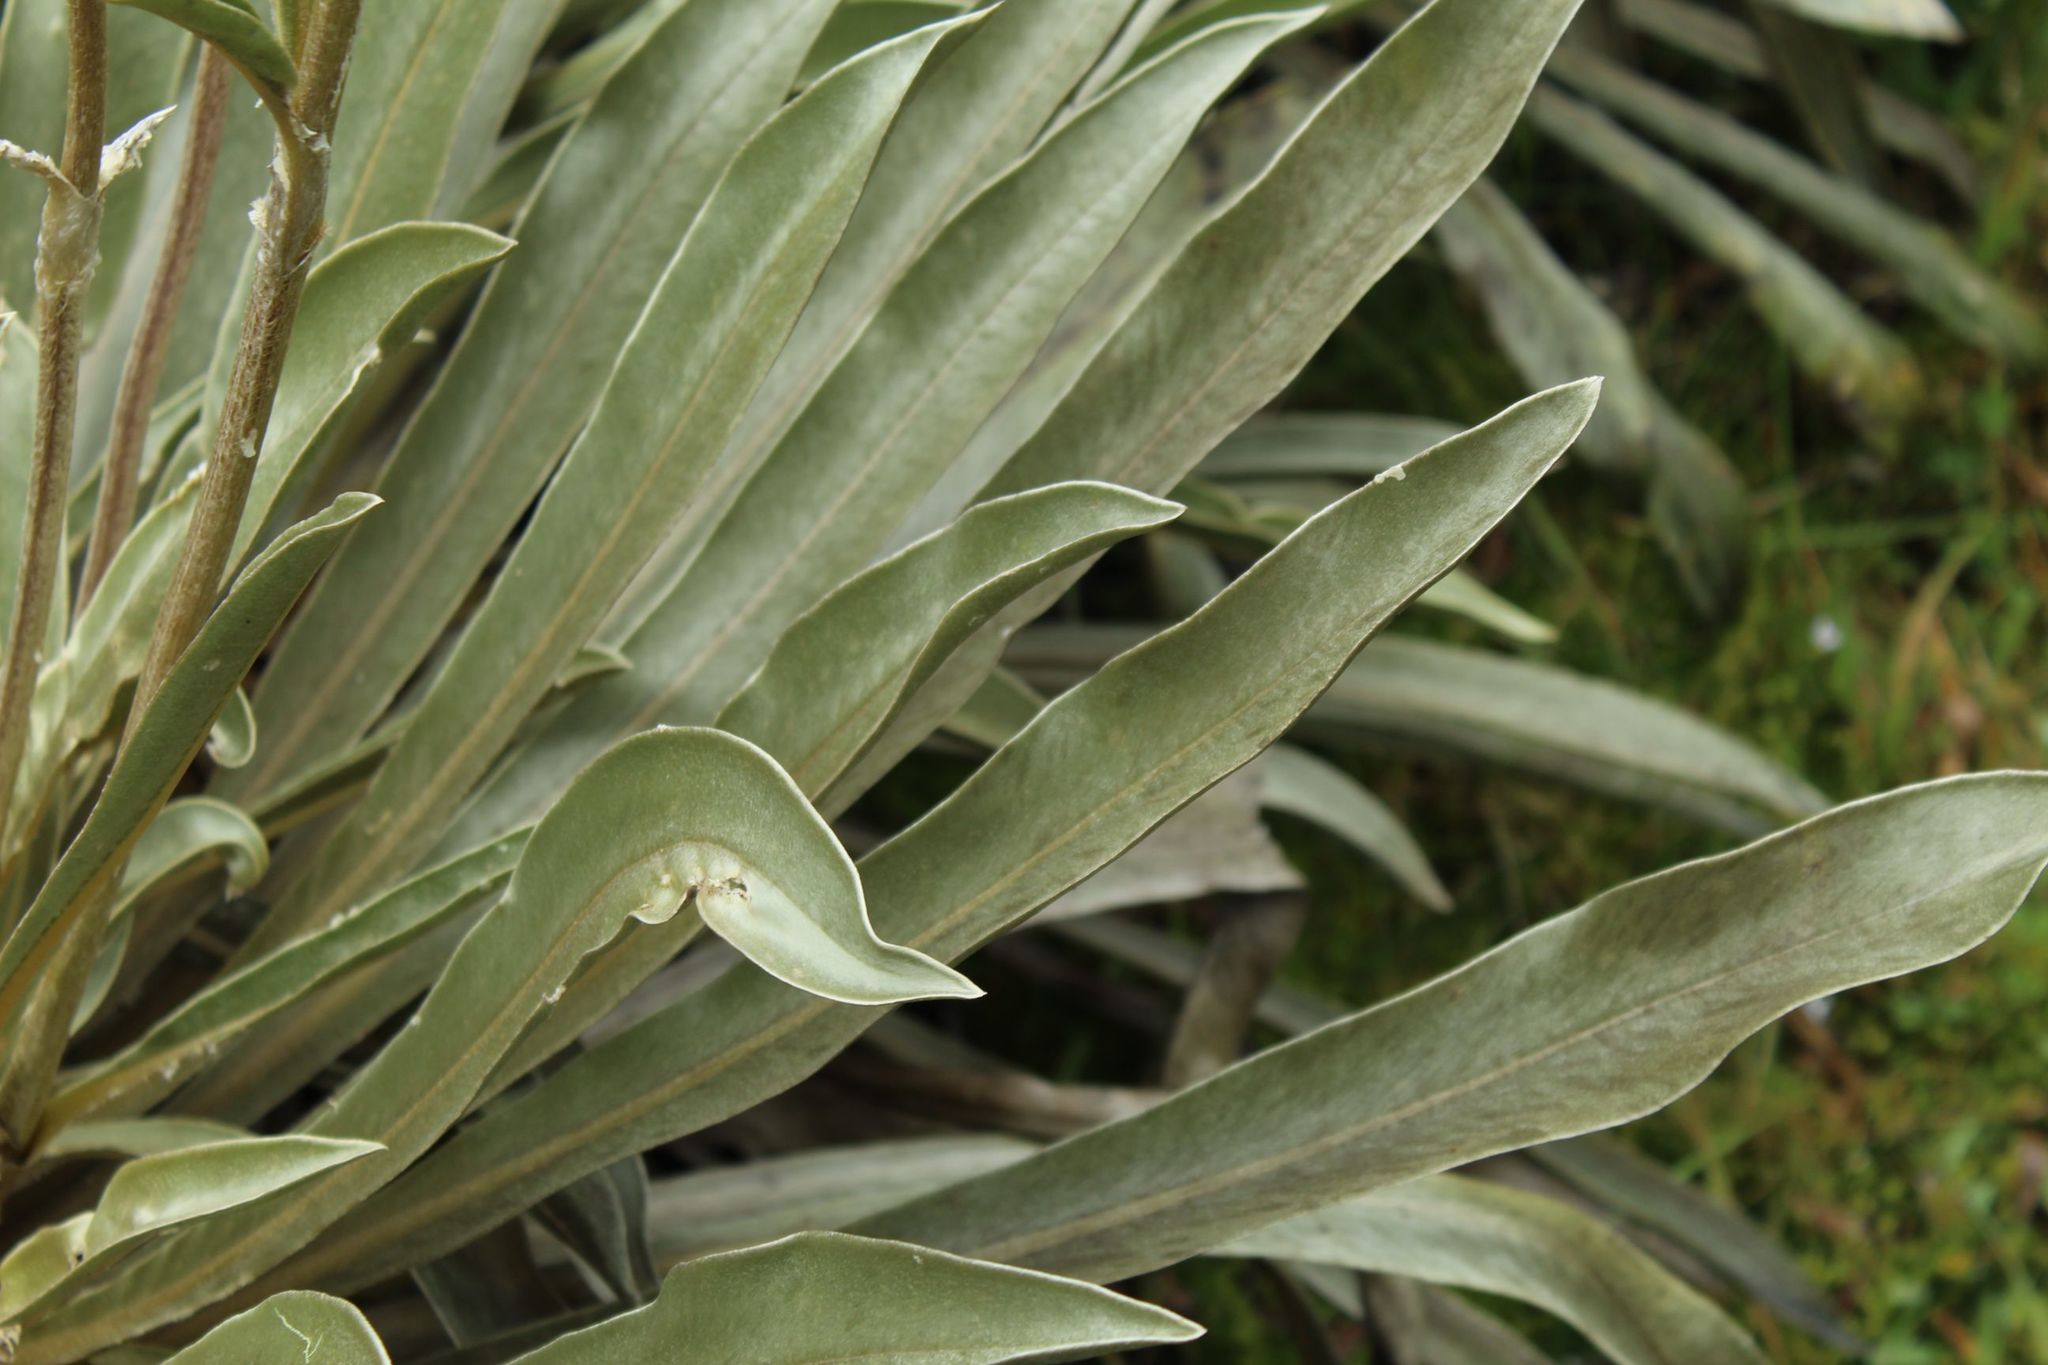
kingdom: Plantae
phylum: Tracheophyta
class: Magnoliopsida
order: Asterales
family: Asteraceae
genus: Espeletia
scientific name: Espeletia boyacensis
